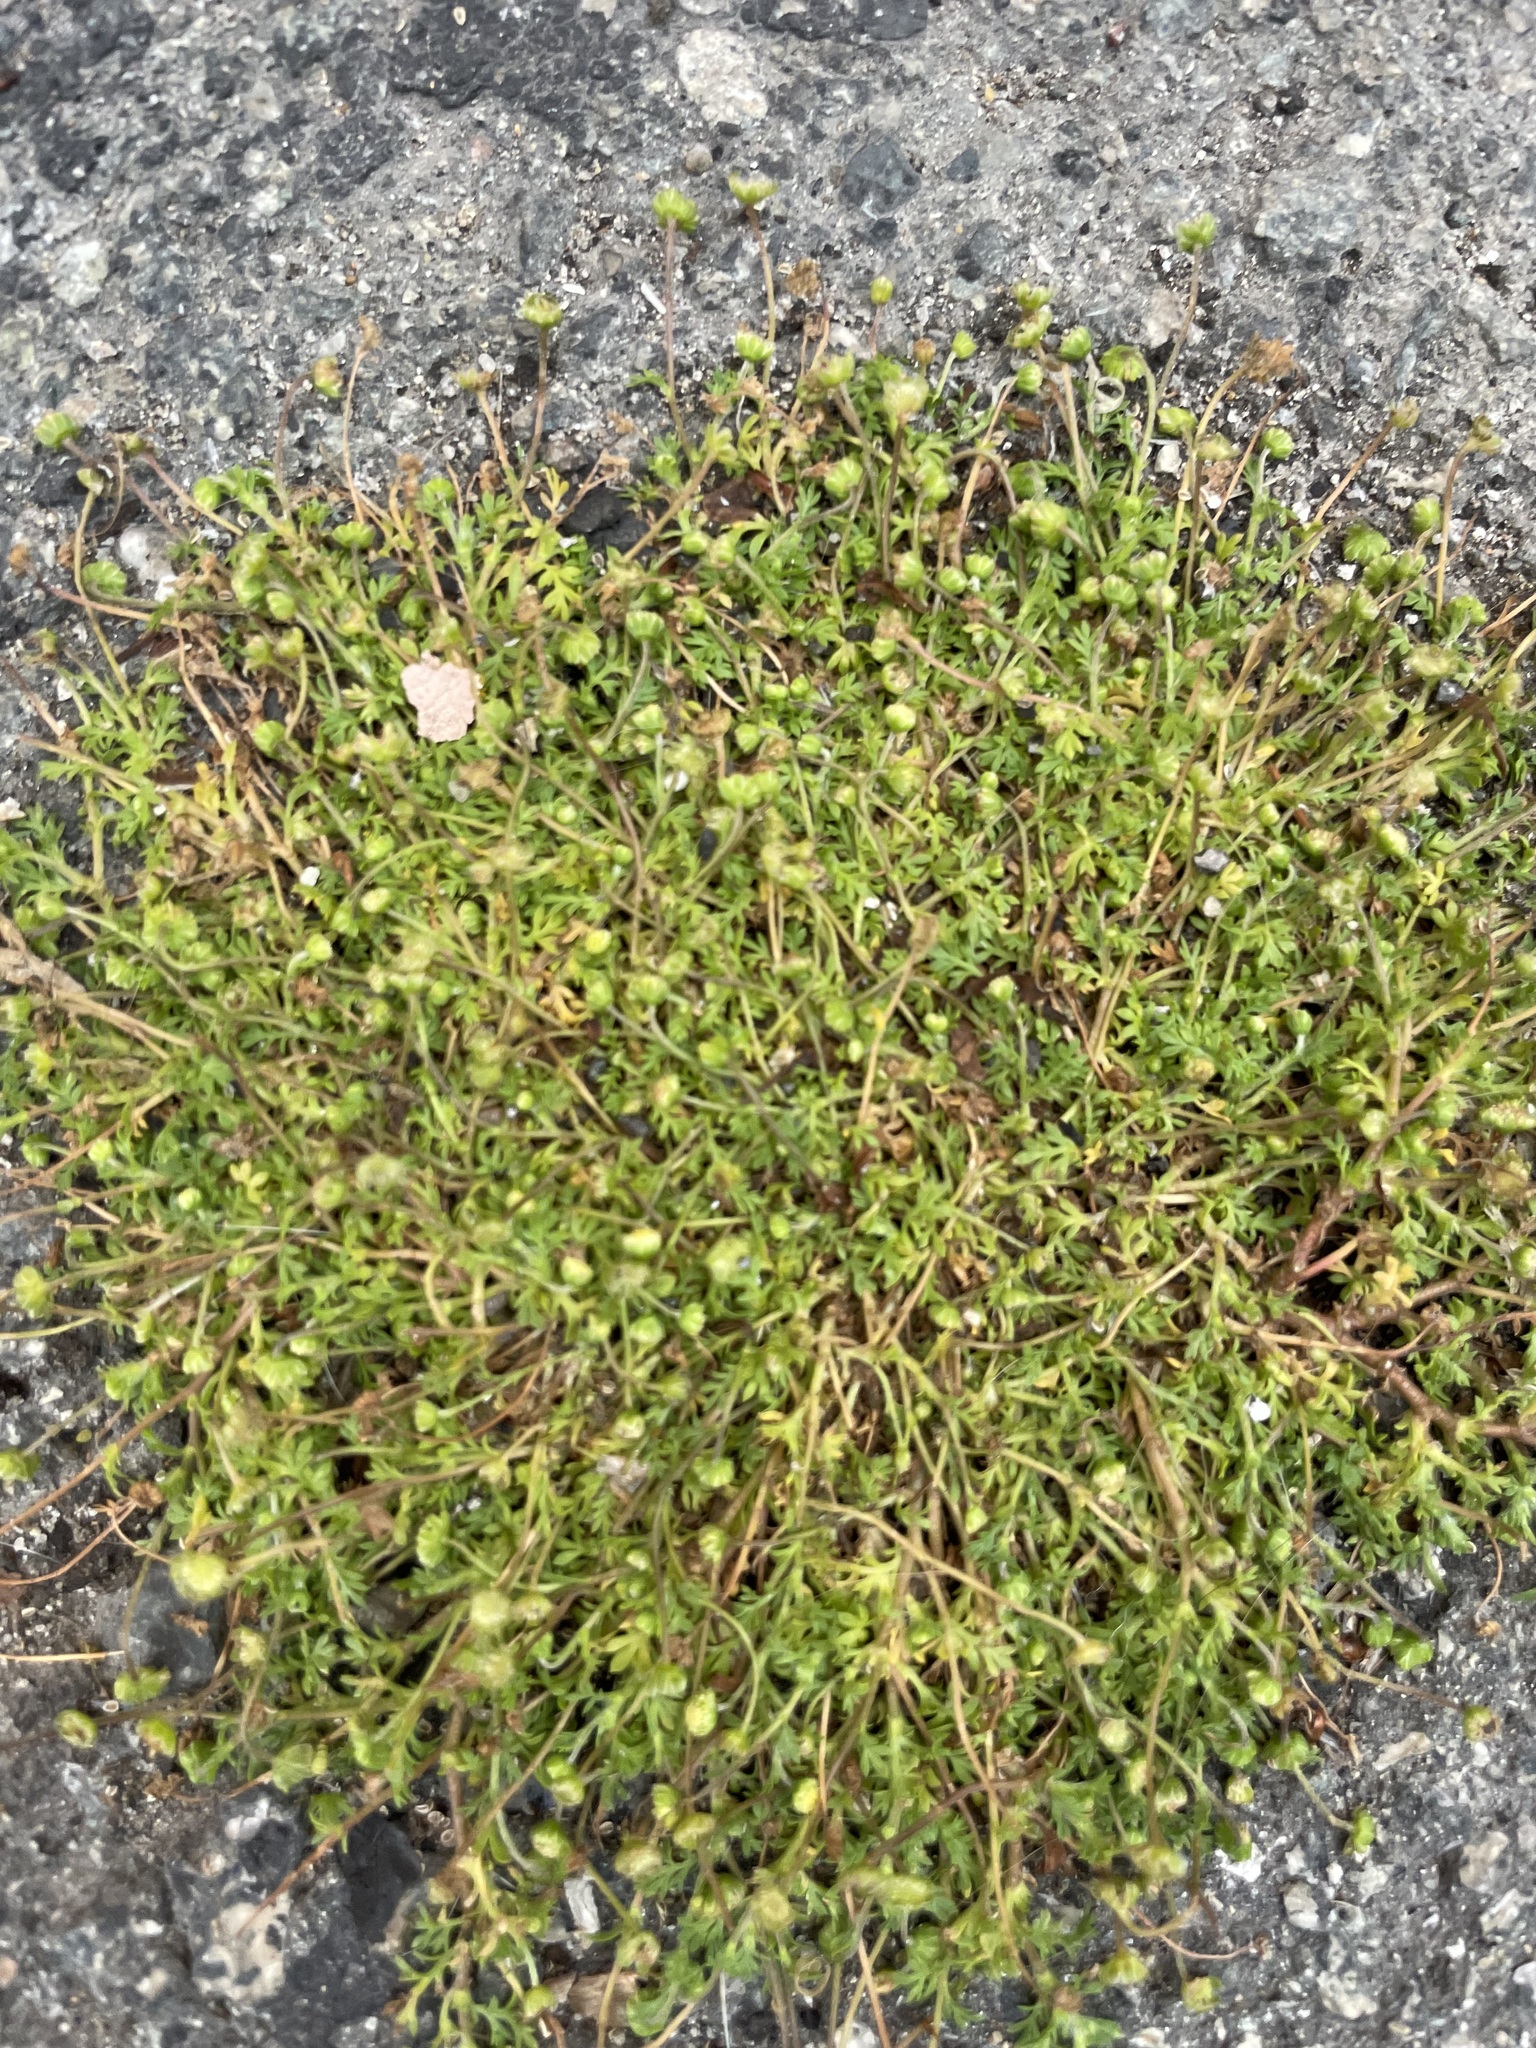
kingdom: Plantae
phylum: Tracheophyta
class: Magnoliopsida
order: Asterales
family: Asteraceae
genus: Cotula
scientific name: Cotula australis
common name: Australian waterbuttons
